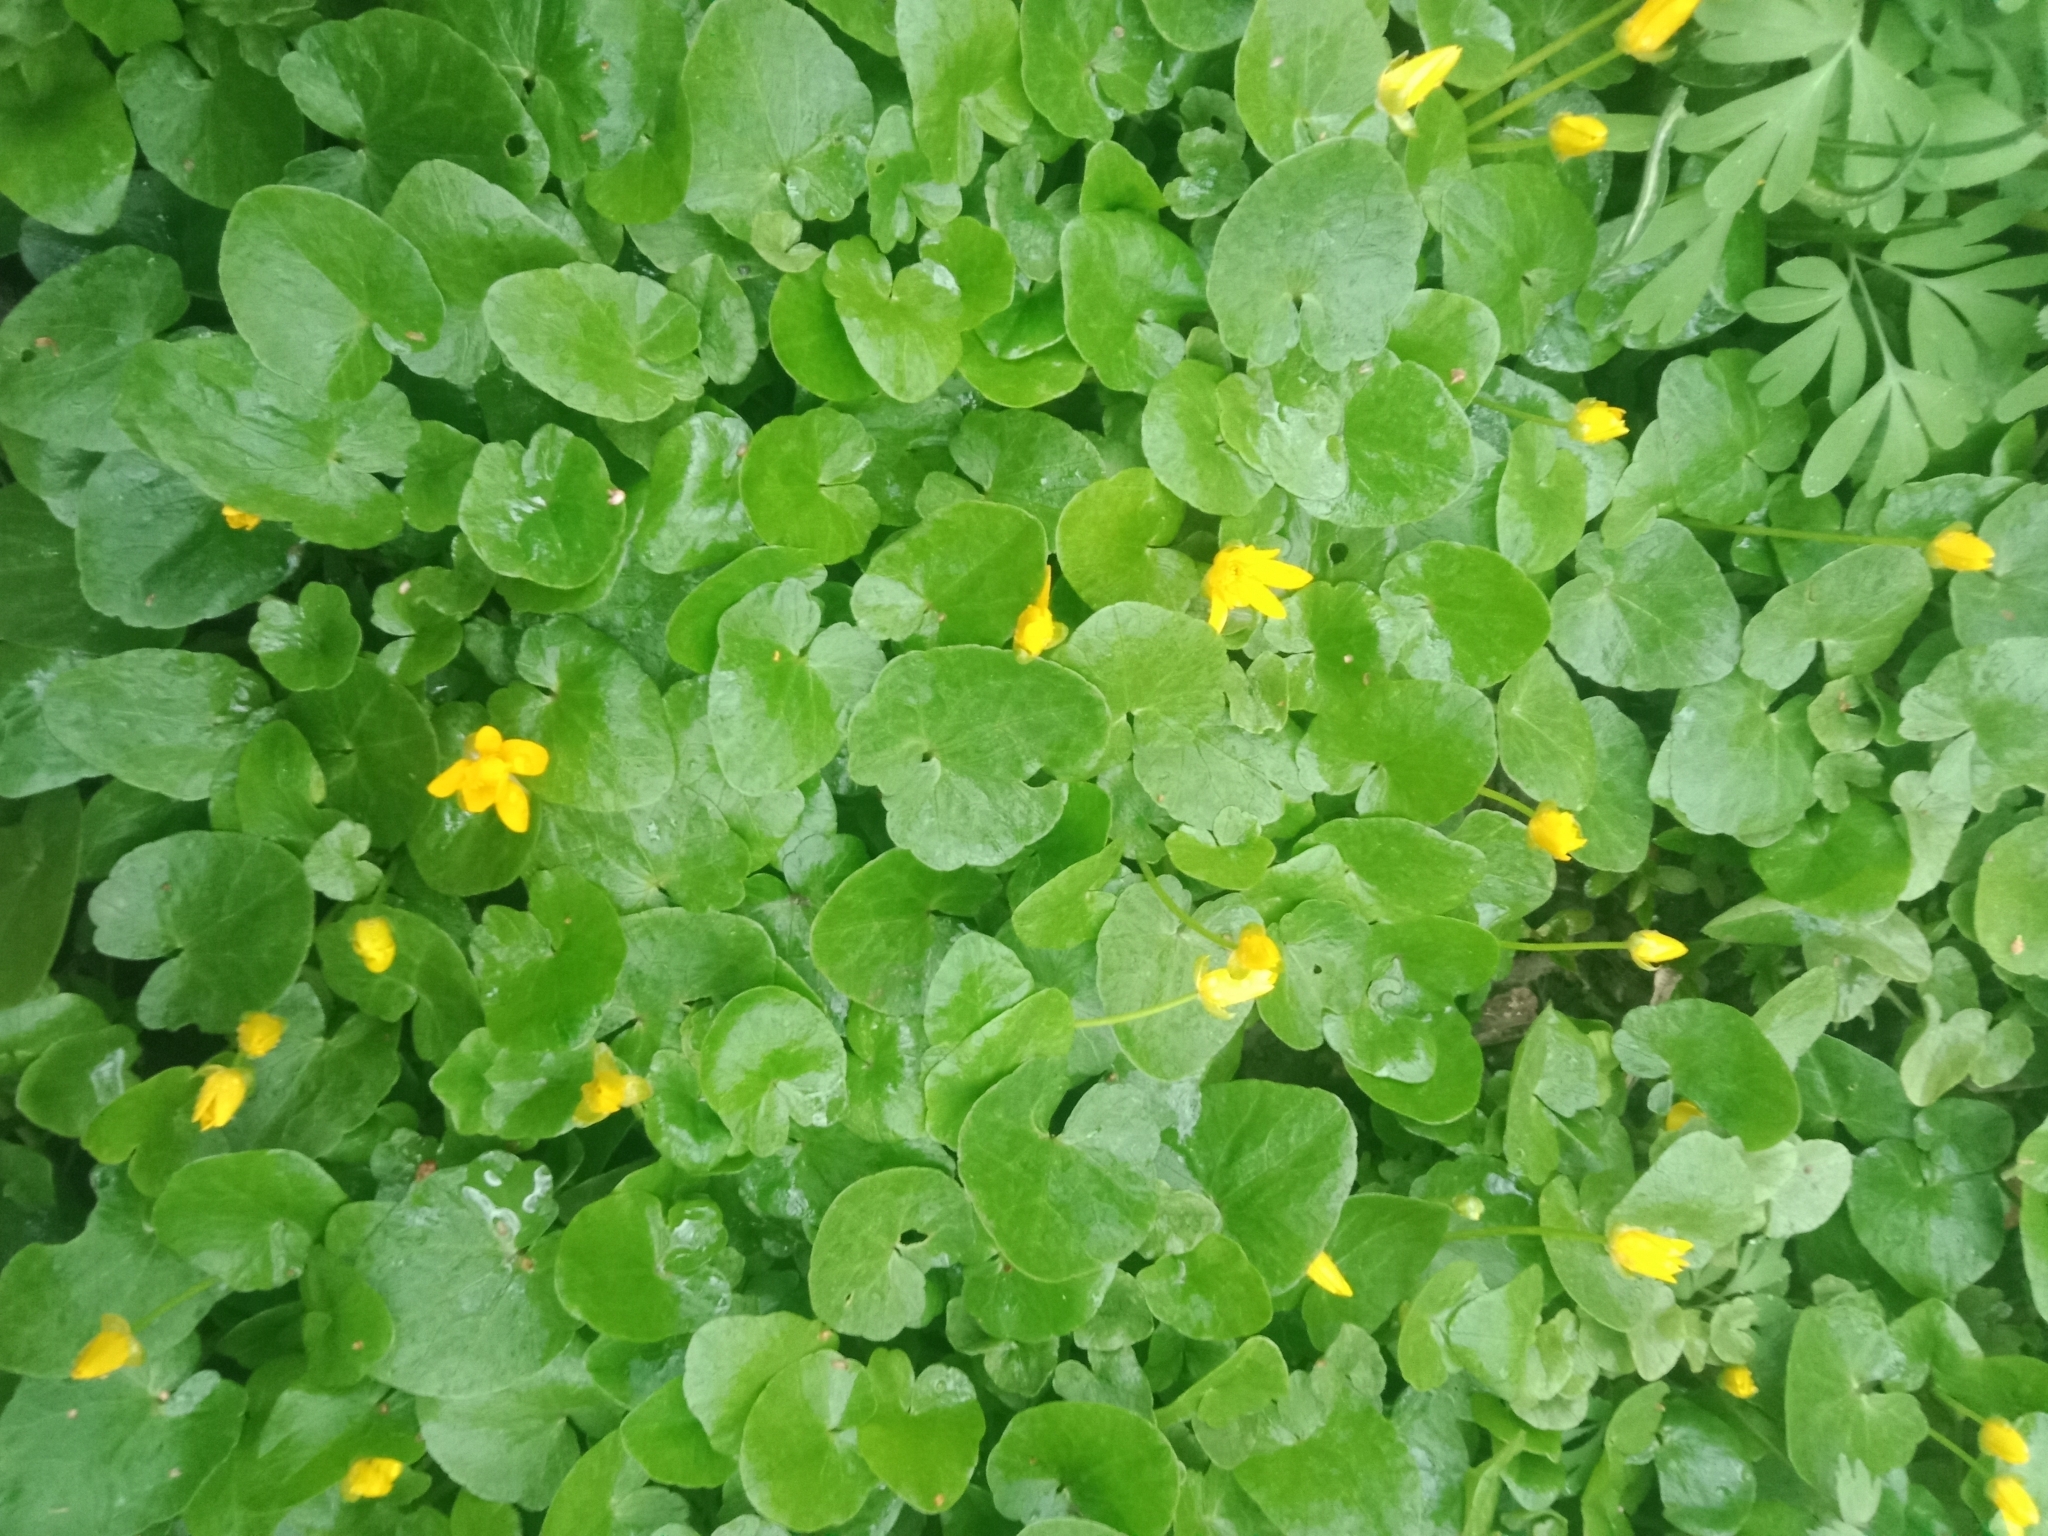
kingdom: Plantae
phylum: Tracheophyta
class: Magnoliopsida
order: Ranunculales
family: Ranunculaceae
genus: Ficaria
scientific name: Ficaria verna
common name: Lesser celandine
